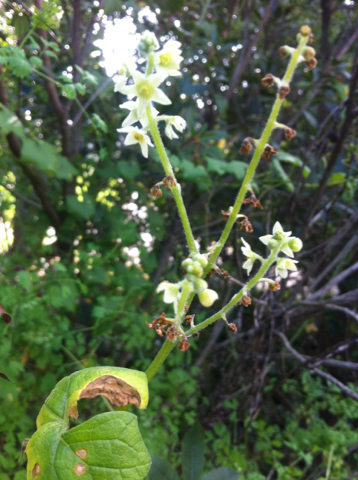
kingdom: Plantae
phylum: Tracheophyta
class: Magnoliopsida
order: Cucurbitales
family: Cucurbitaceae
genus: Marah
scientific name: Marah fabacea
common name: California manroot
